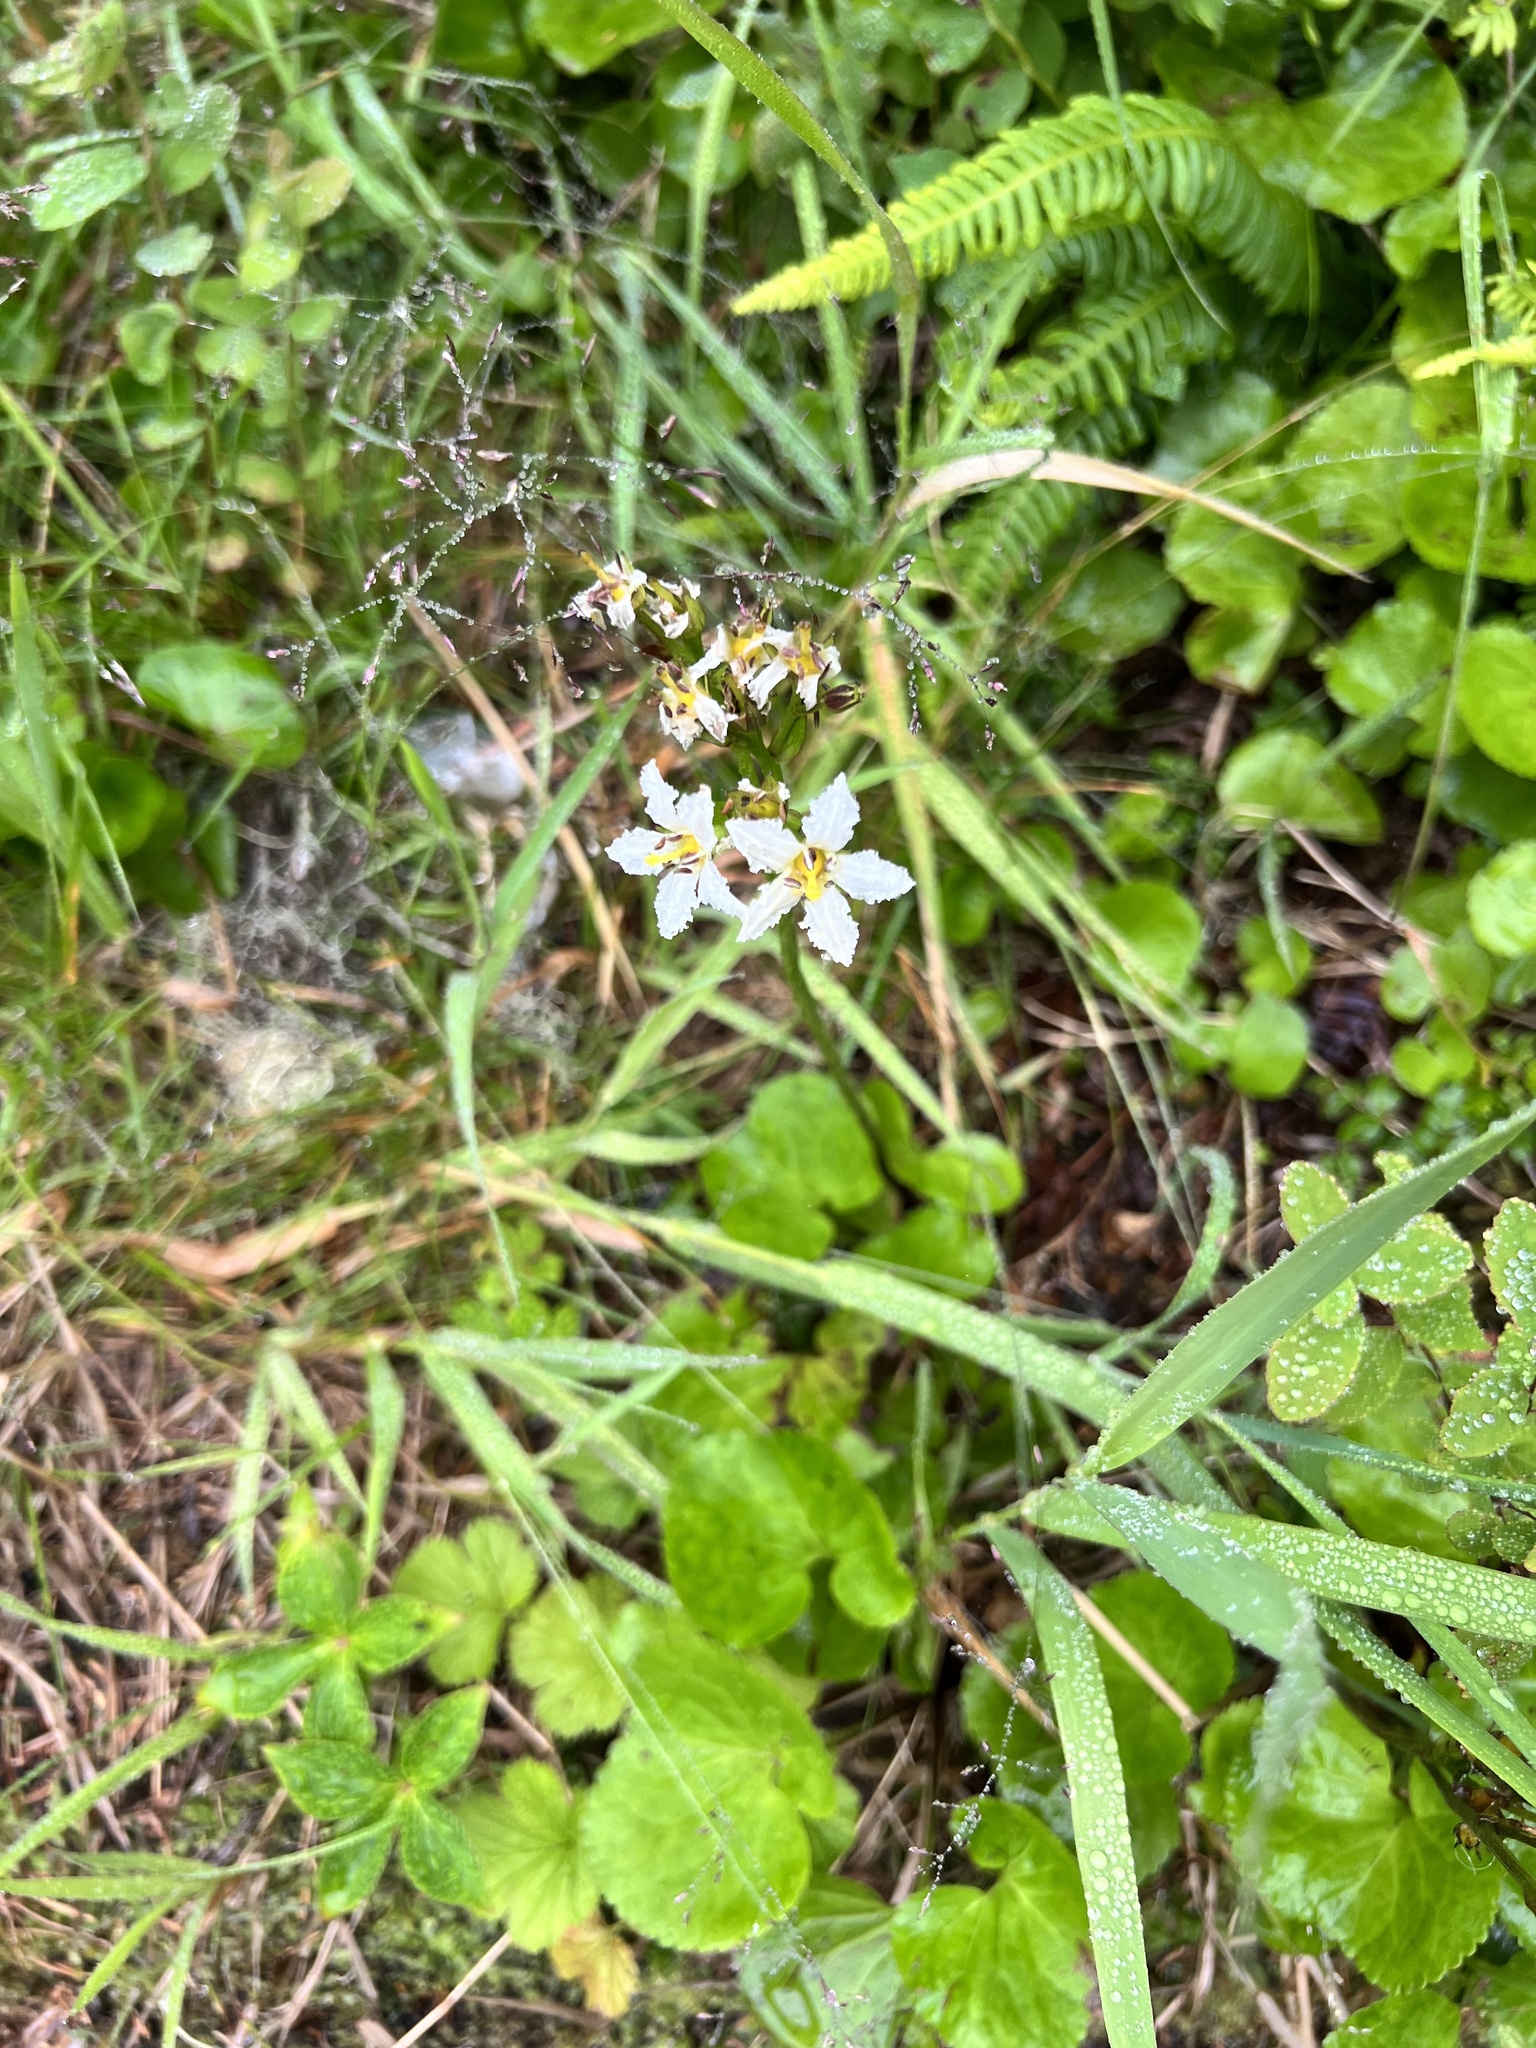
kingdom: Plantae
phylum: Tracheophyta
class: Magnoliopsida
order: Asterales
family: Menyanthaceae
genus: Nephrophyllidium
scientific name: Nephrophyllidium crista-galli
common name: Deer-cabbage
